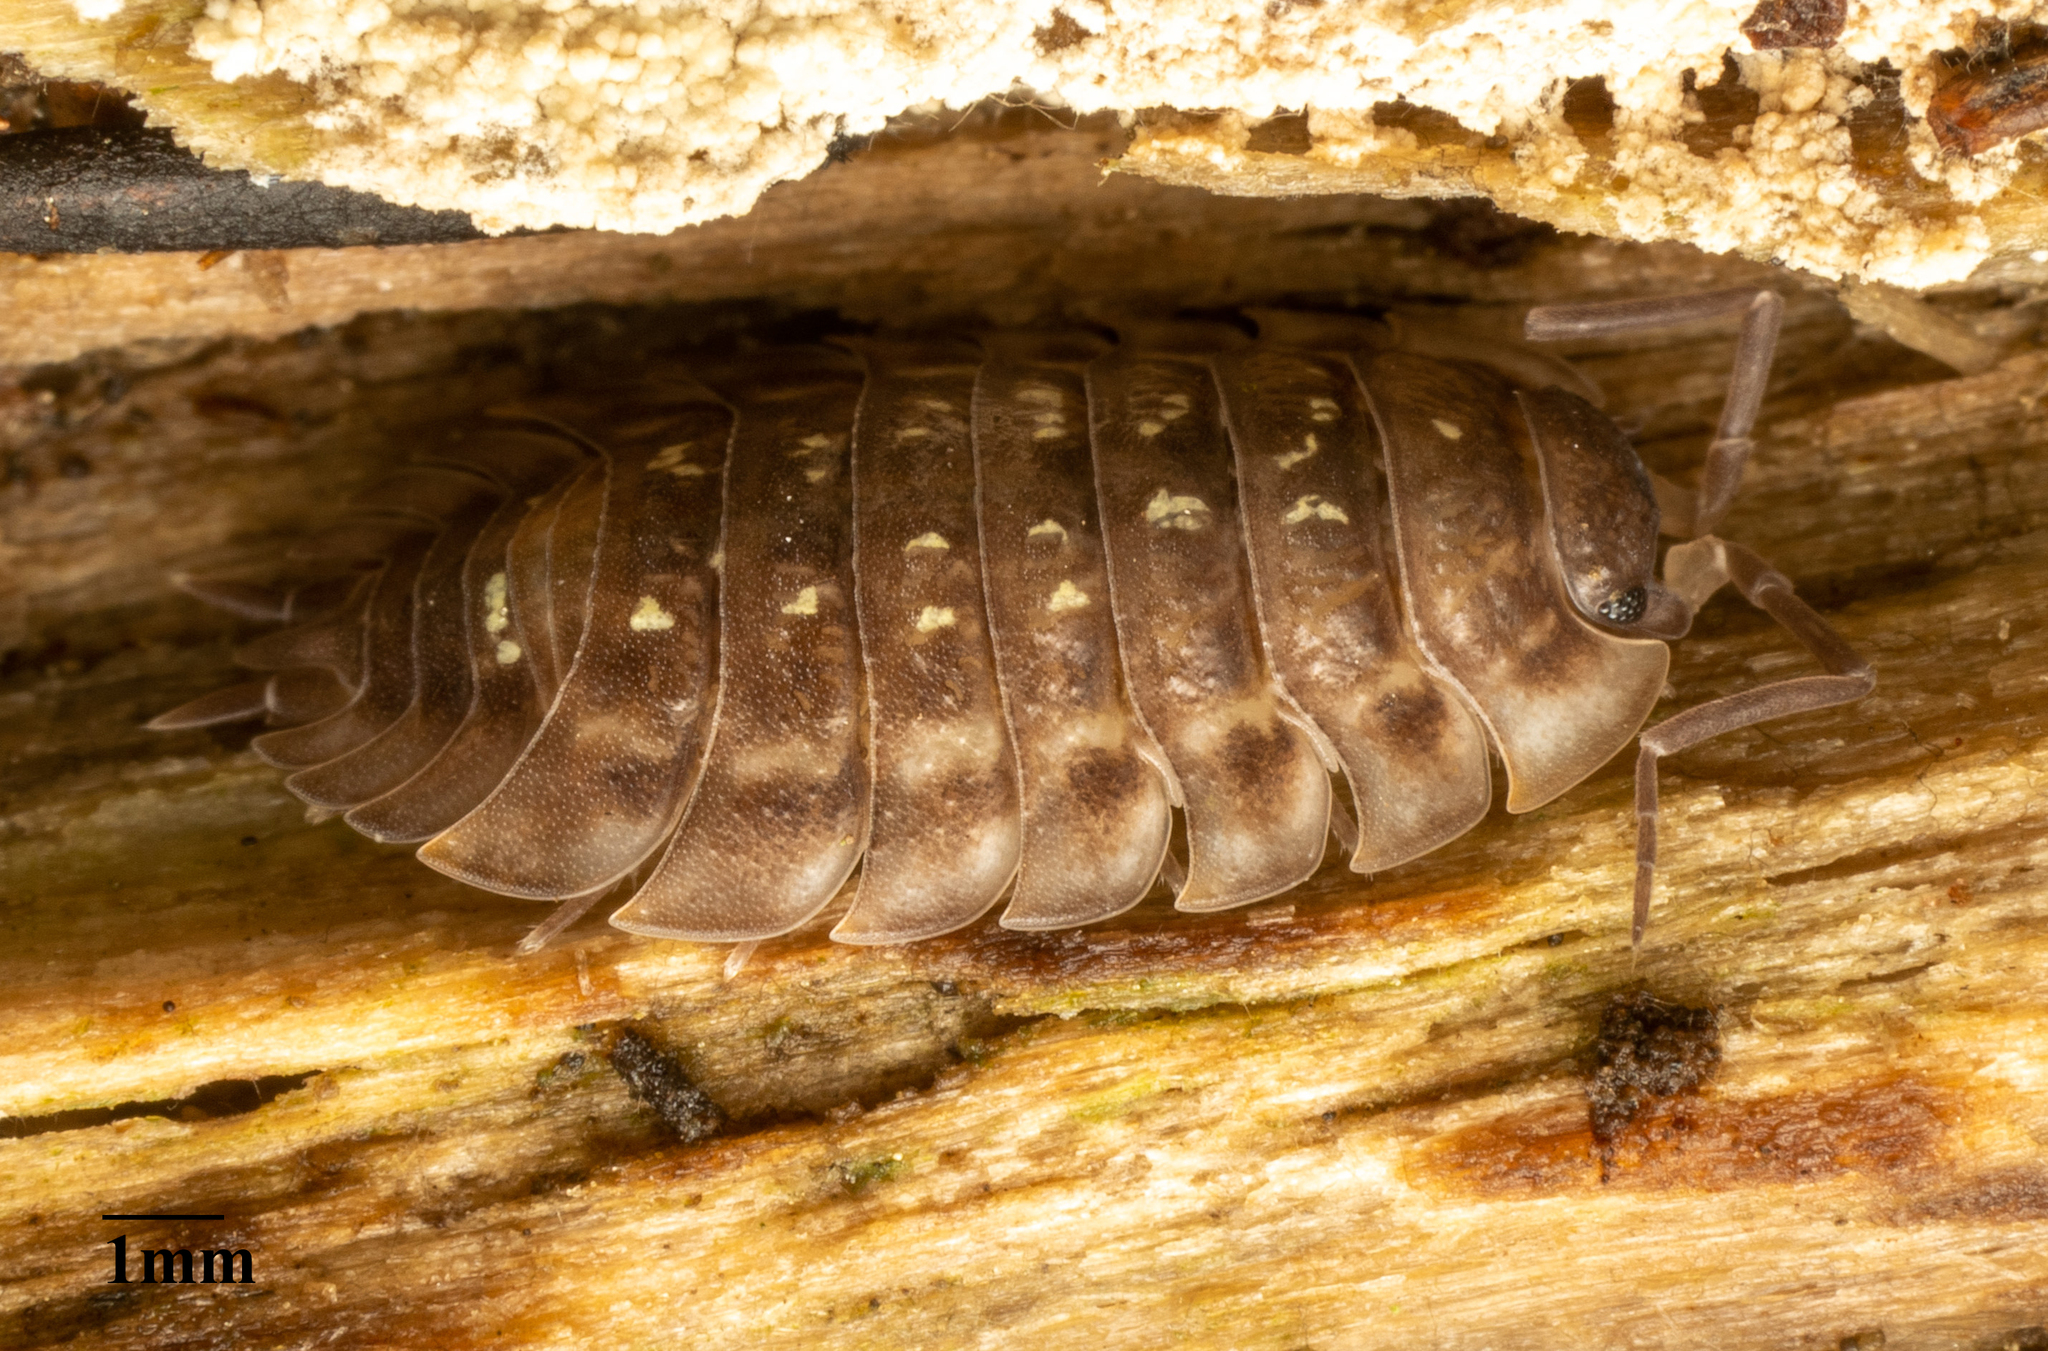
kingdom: Animalia
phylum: Arthropoda
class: Malacostraca
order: Isopoda
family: Oniscidae
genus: Oniscus
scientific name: Oniscus asellus
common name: Common shiny woodlouse
